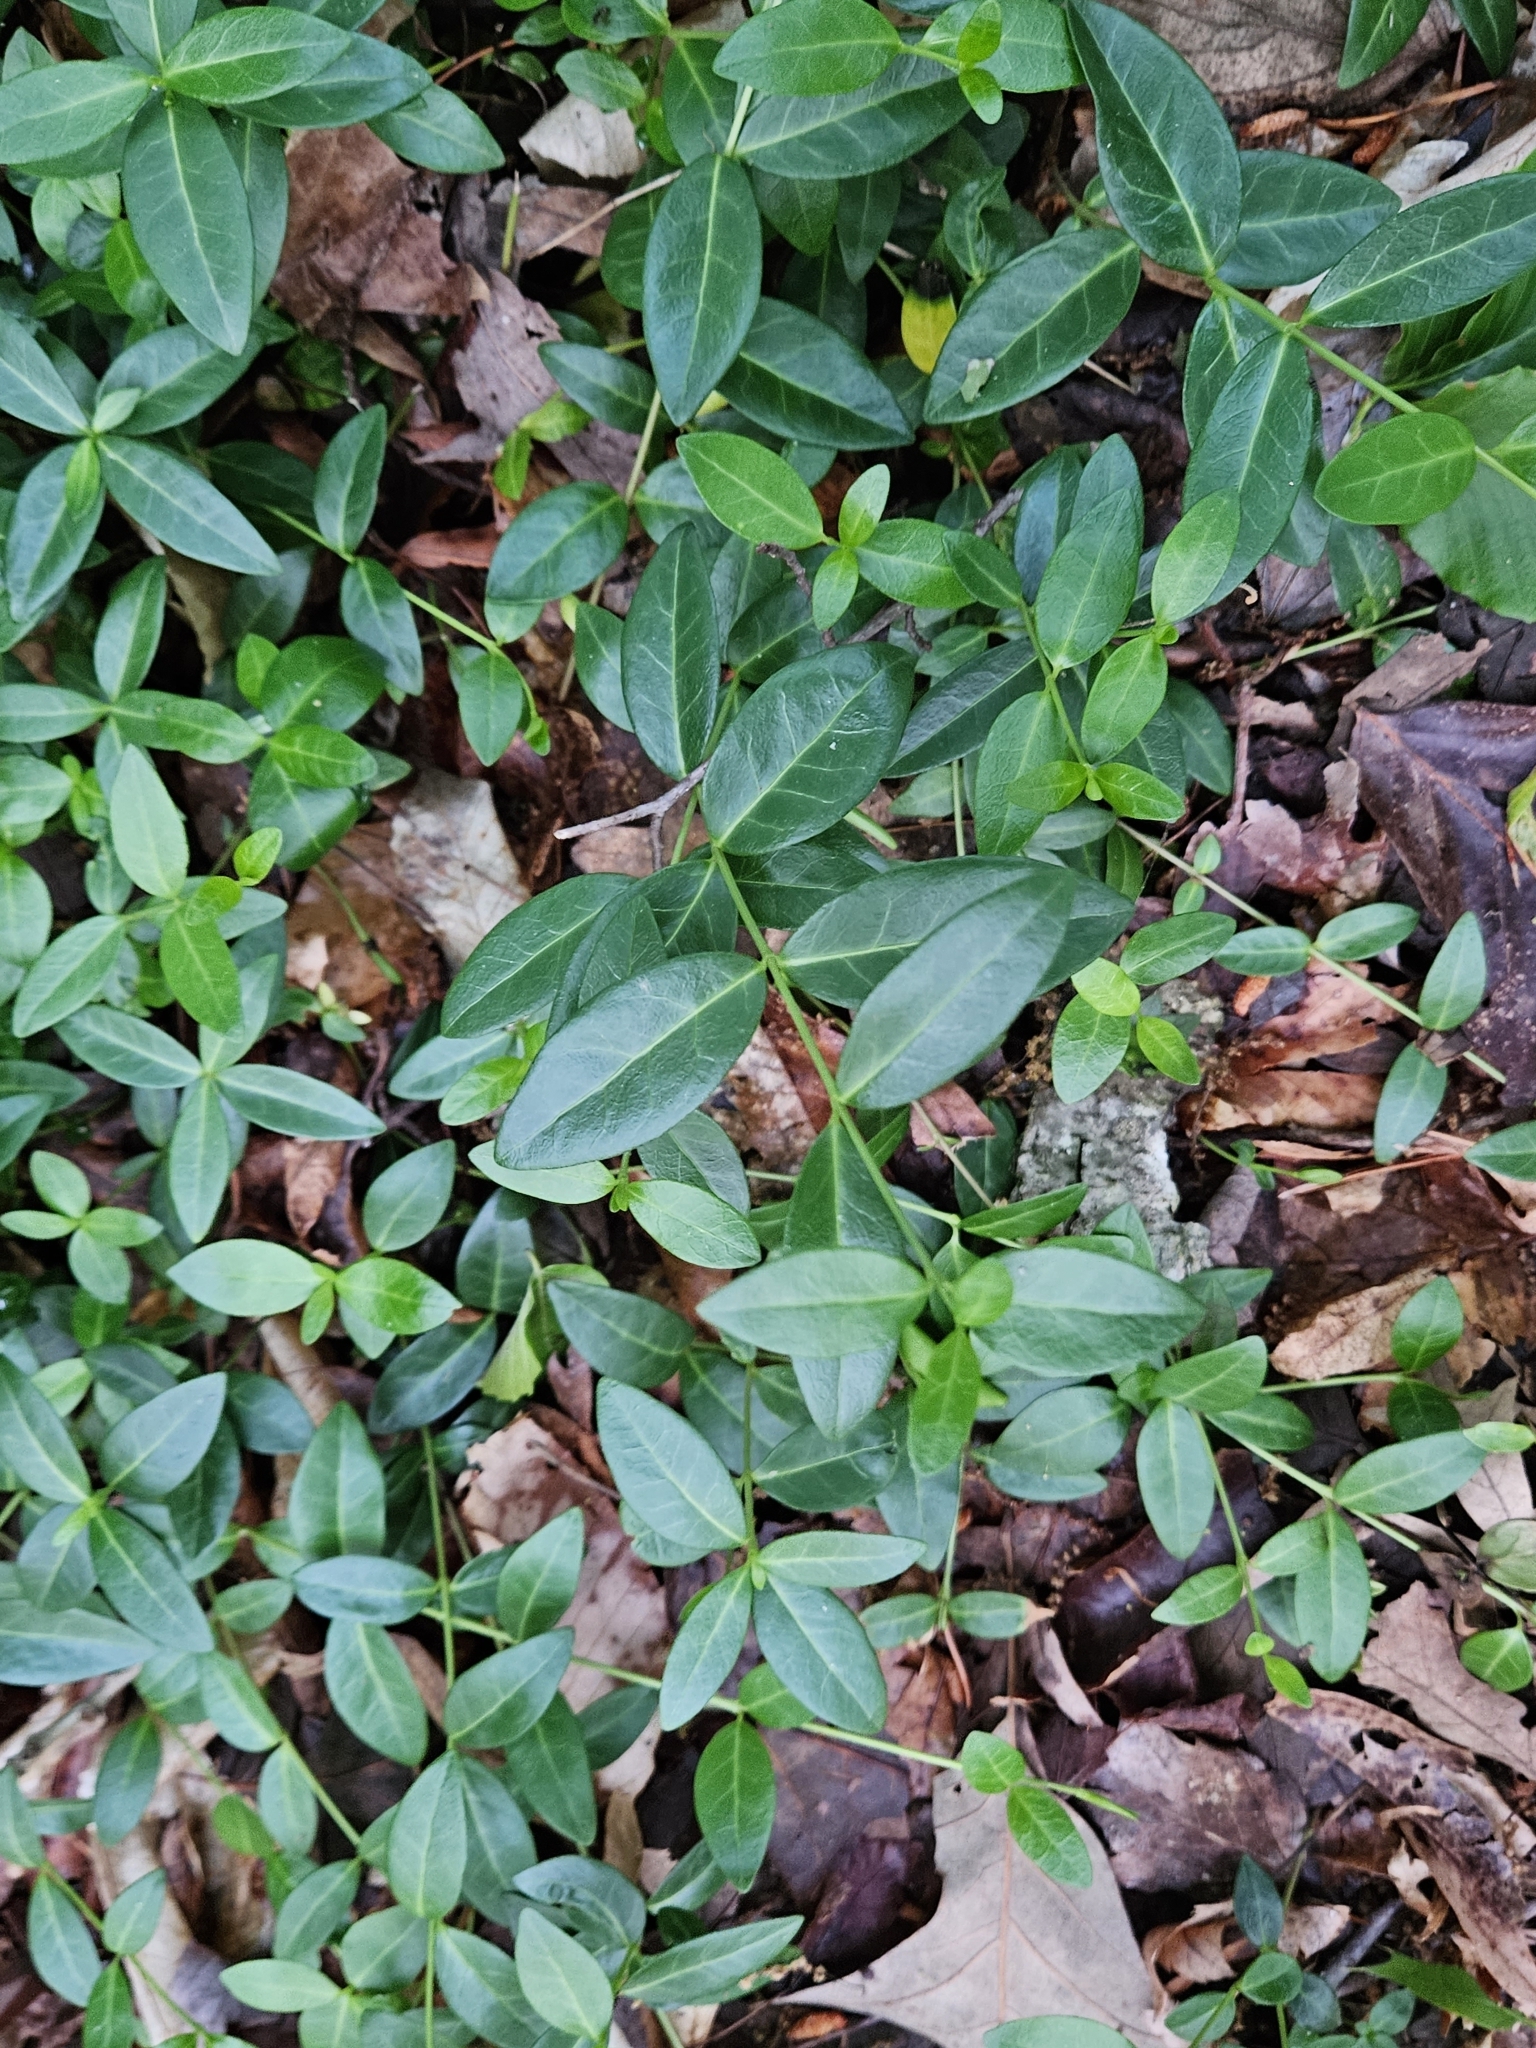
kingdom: Plantae
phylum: Tracheophyta
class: Magnoliopsida
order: Gentianales
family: Apocynaceae
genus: Vinca
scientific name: Vinca minor
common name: Lesser periwinkle
